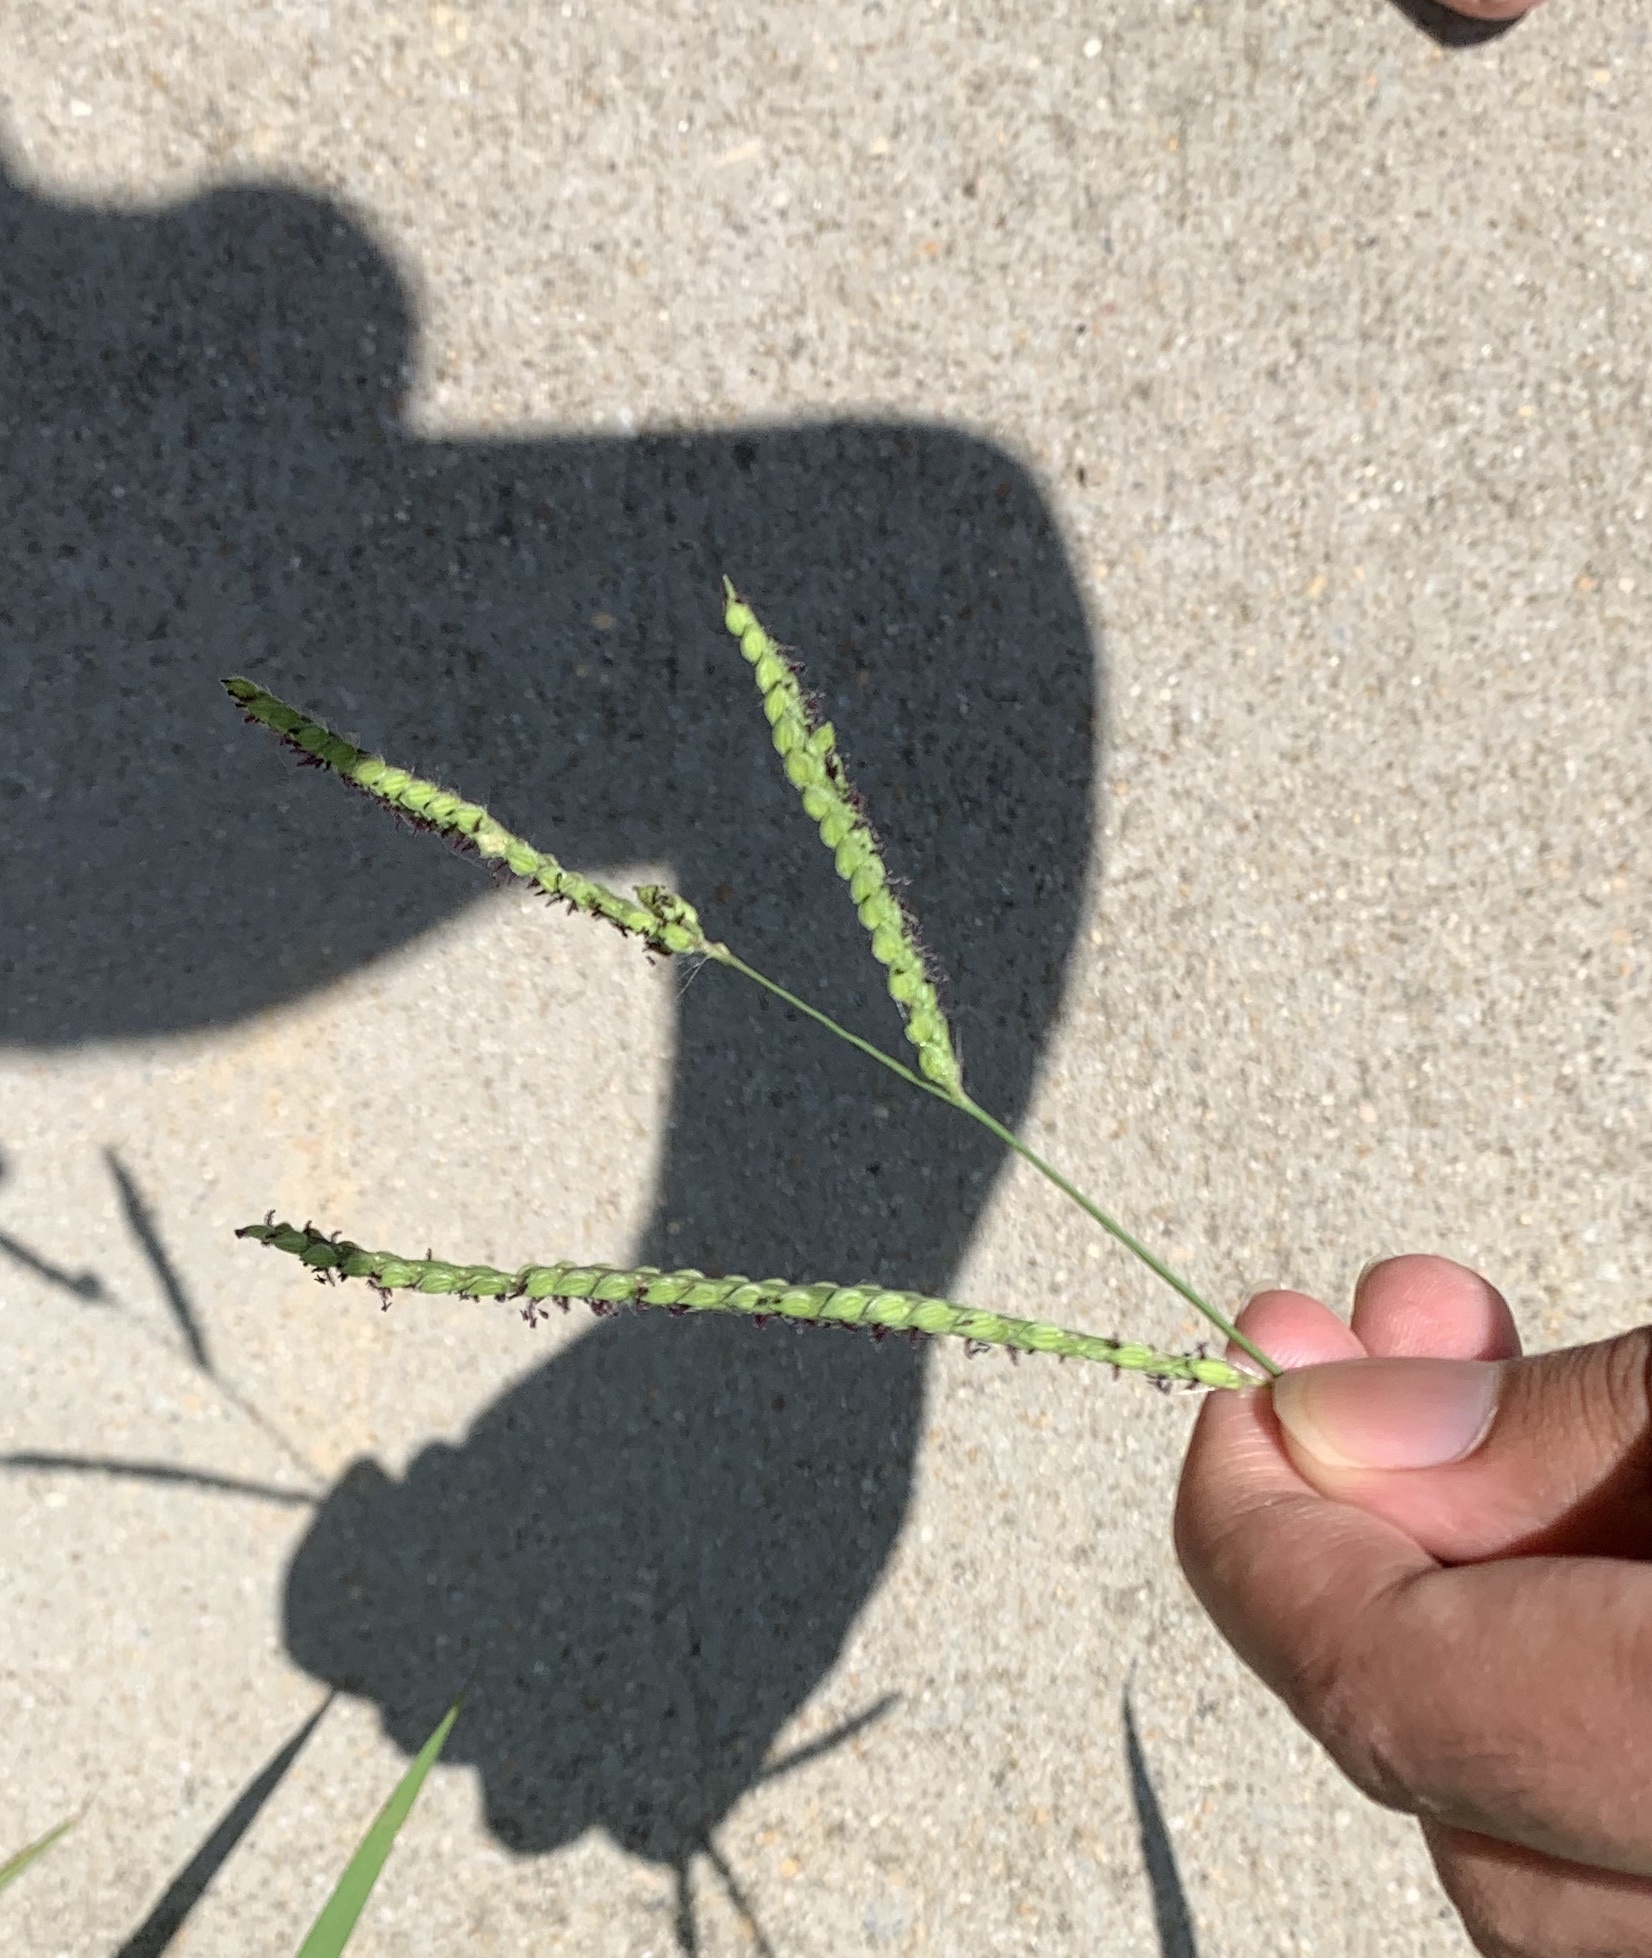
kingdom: Plantae
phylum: Tracheophyta
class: Liliopsida
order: Poales
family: Poaceae
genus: Paspalum
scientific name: Paspalum dilatatum
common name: Dallisgrass
